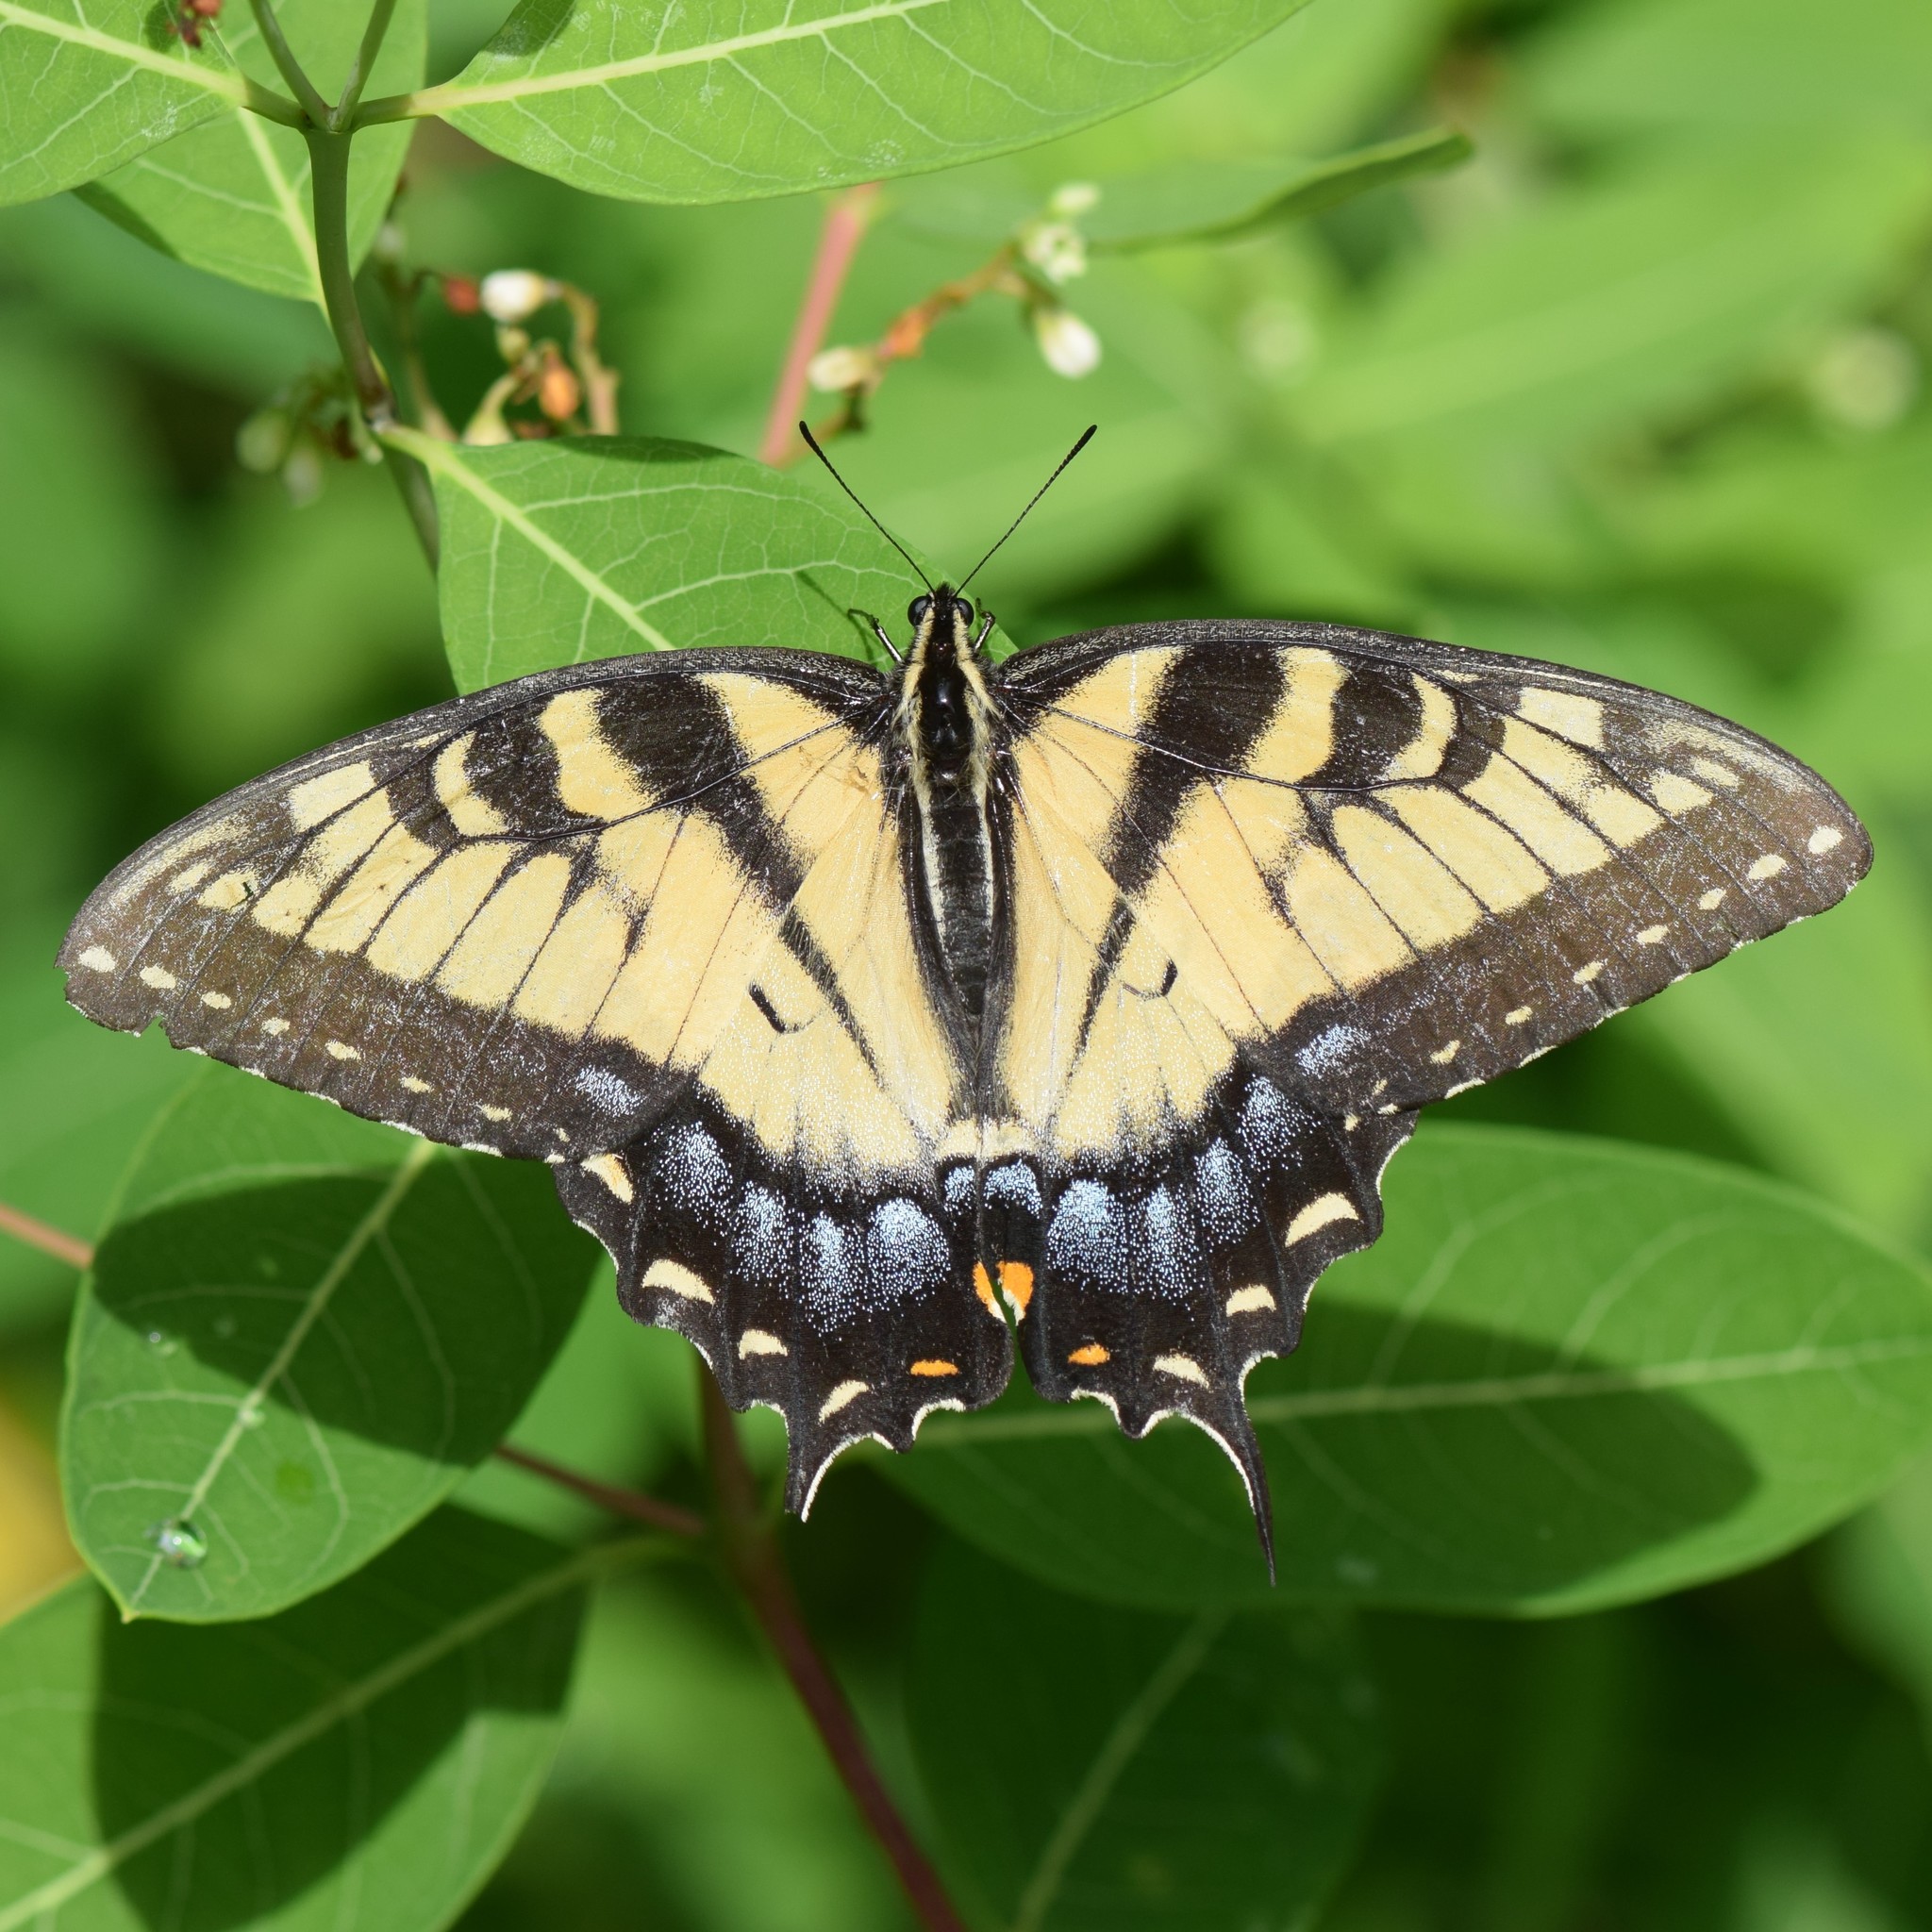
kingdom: Animalia
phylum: Arthropoda
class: Insecta
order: Lepidoptera
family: Papilionidae
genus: Papilio
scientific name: Papilio glaucus
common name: Tiger swallowtail
